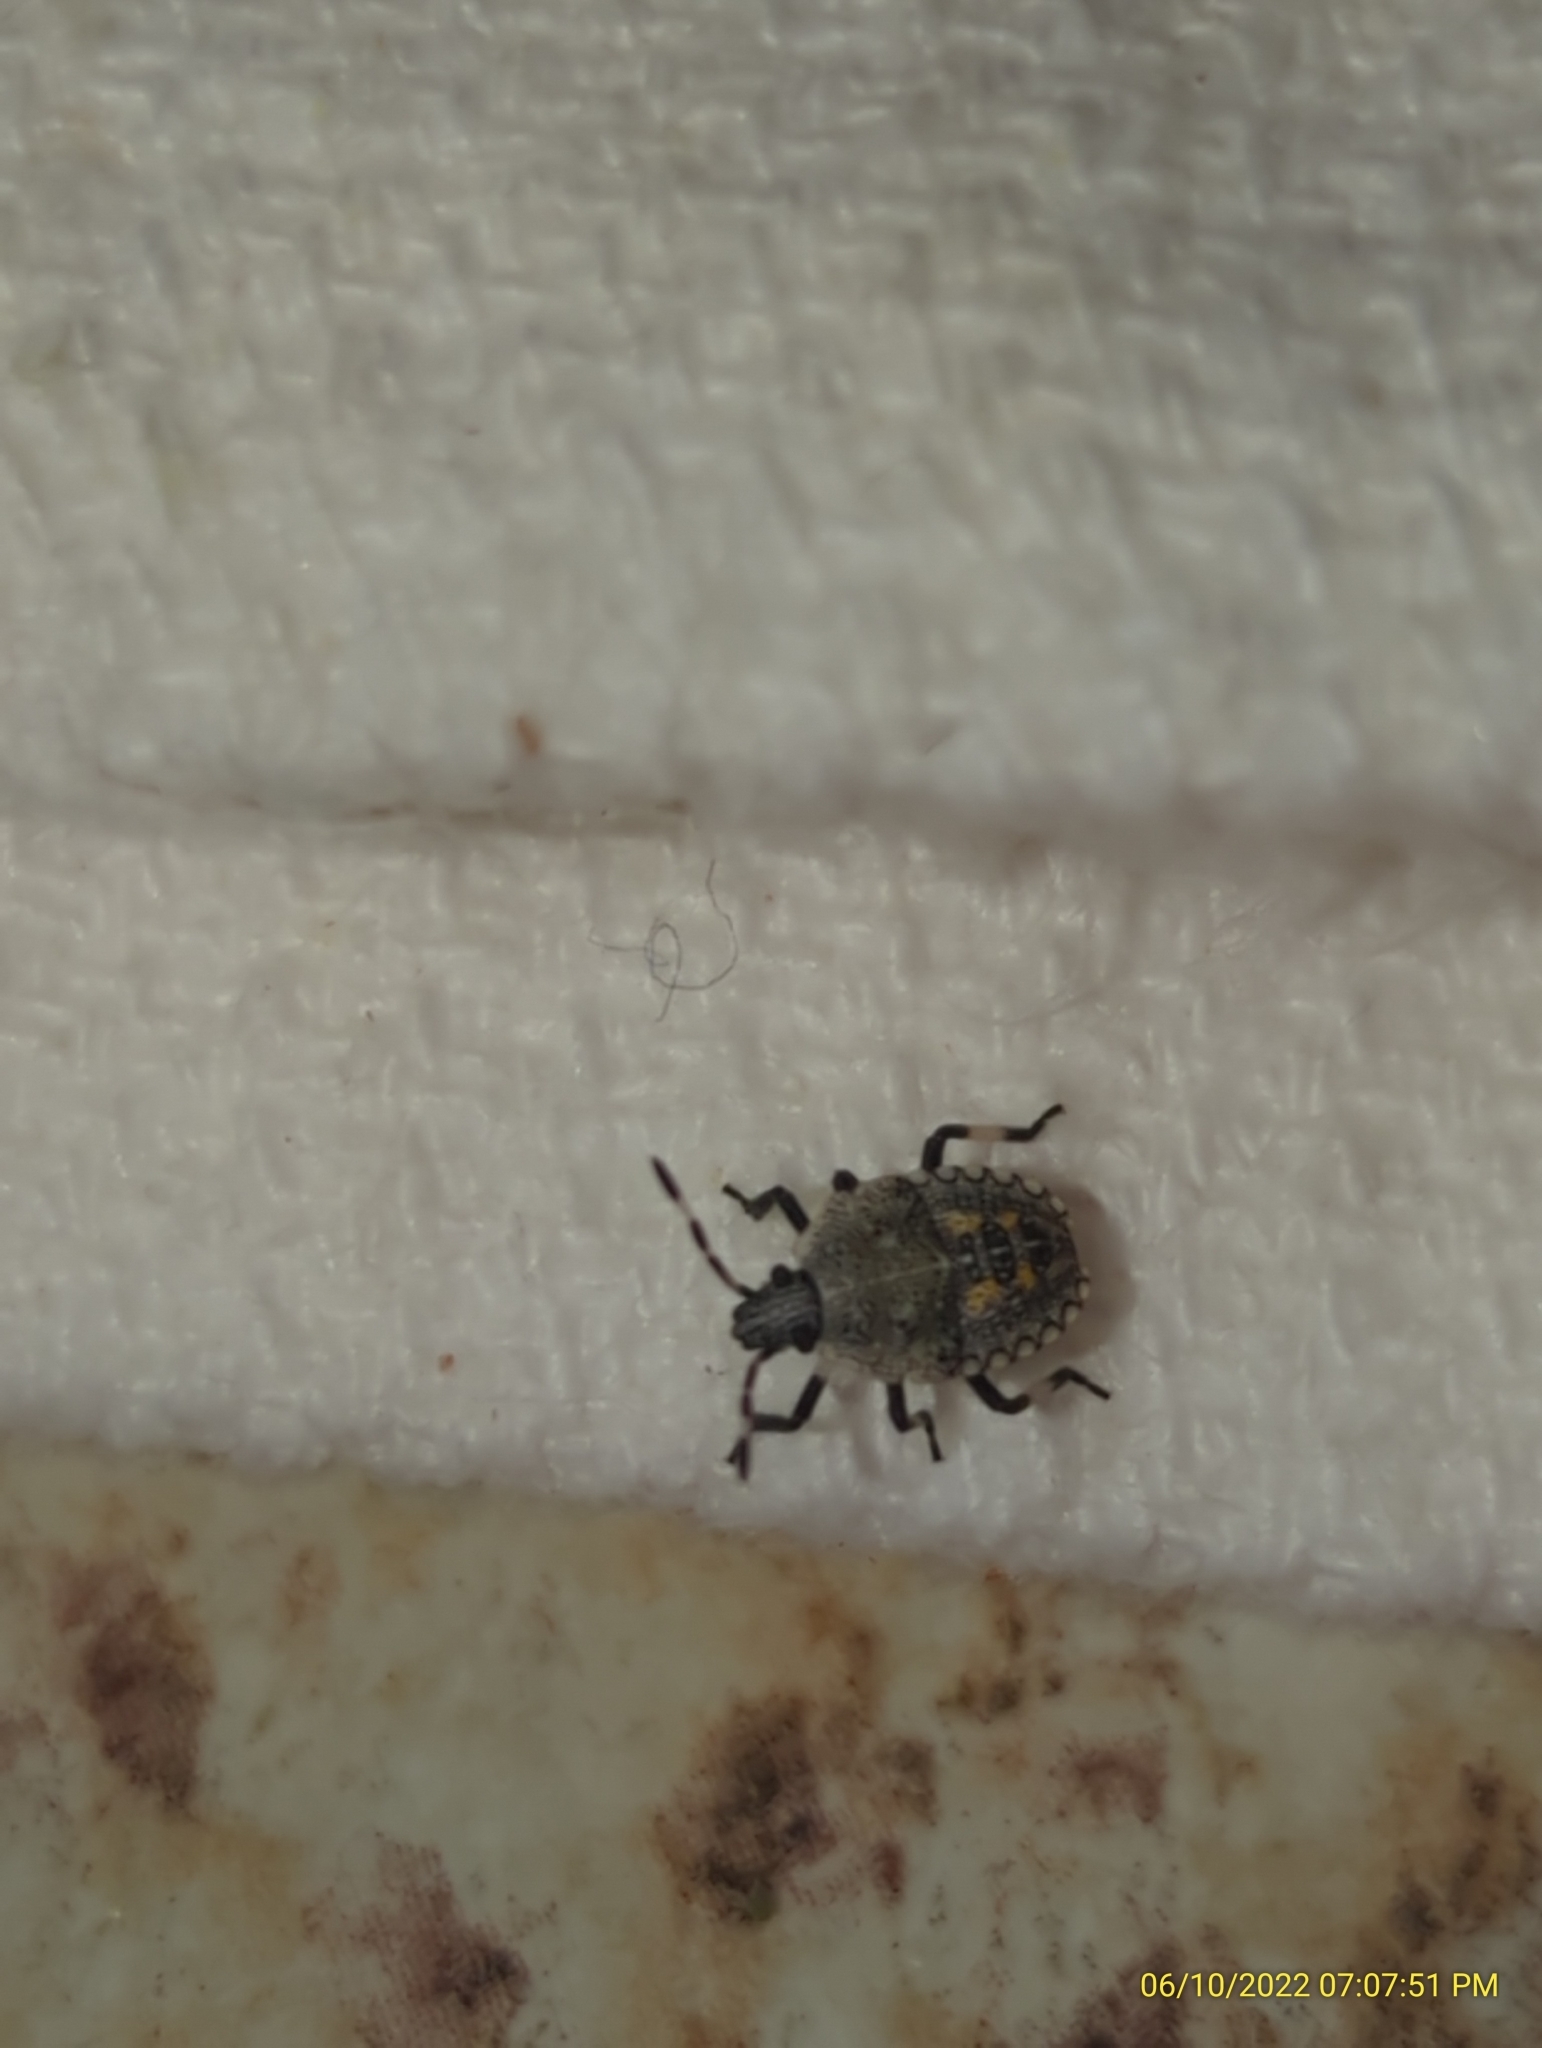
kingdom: Animalia
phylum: Arthropoda
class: Insecta
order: Hemiptera
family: Pentatomidae
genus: Proxys
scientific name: Proxys punctulatus
